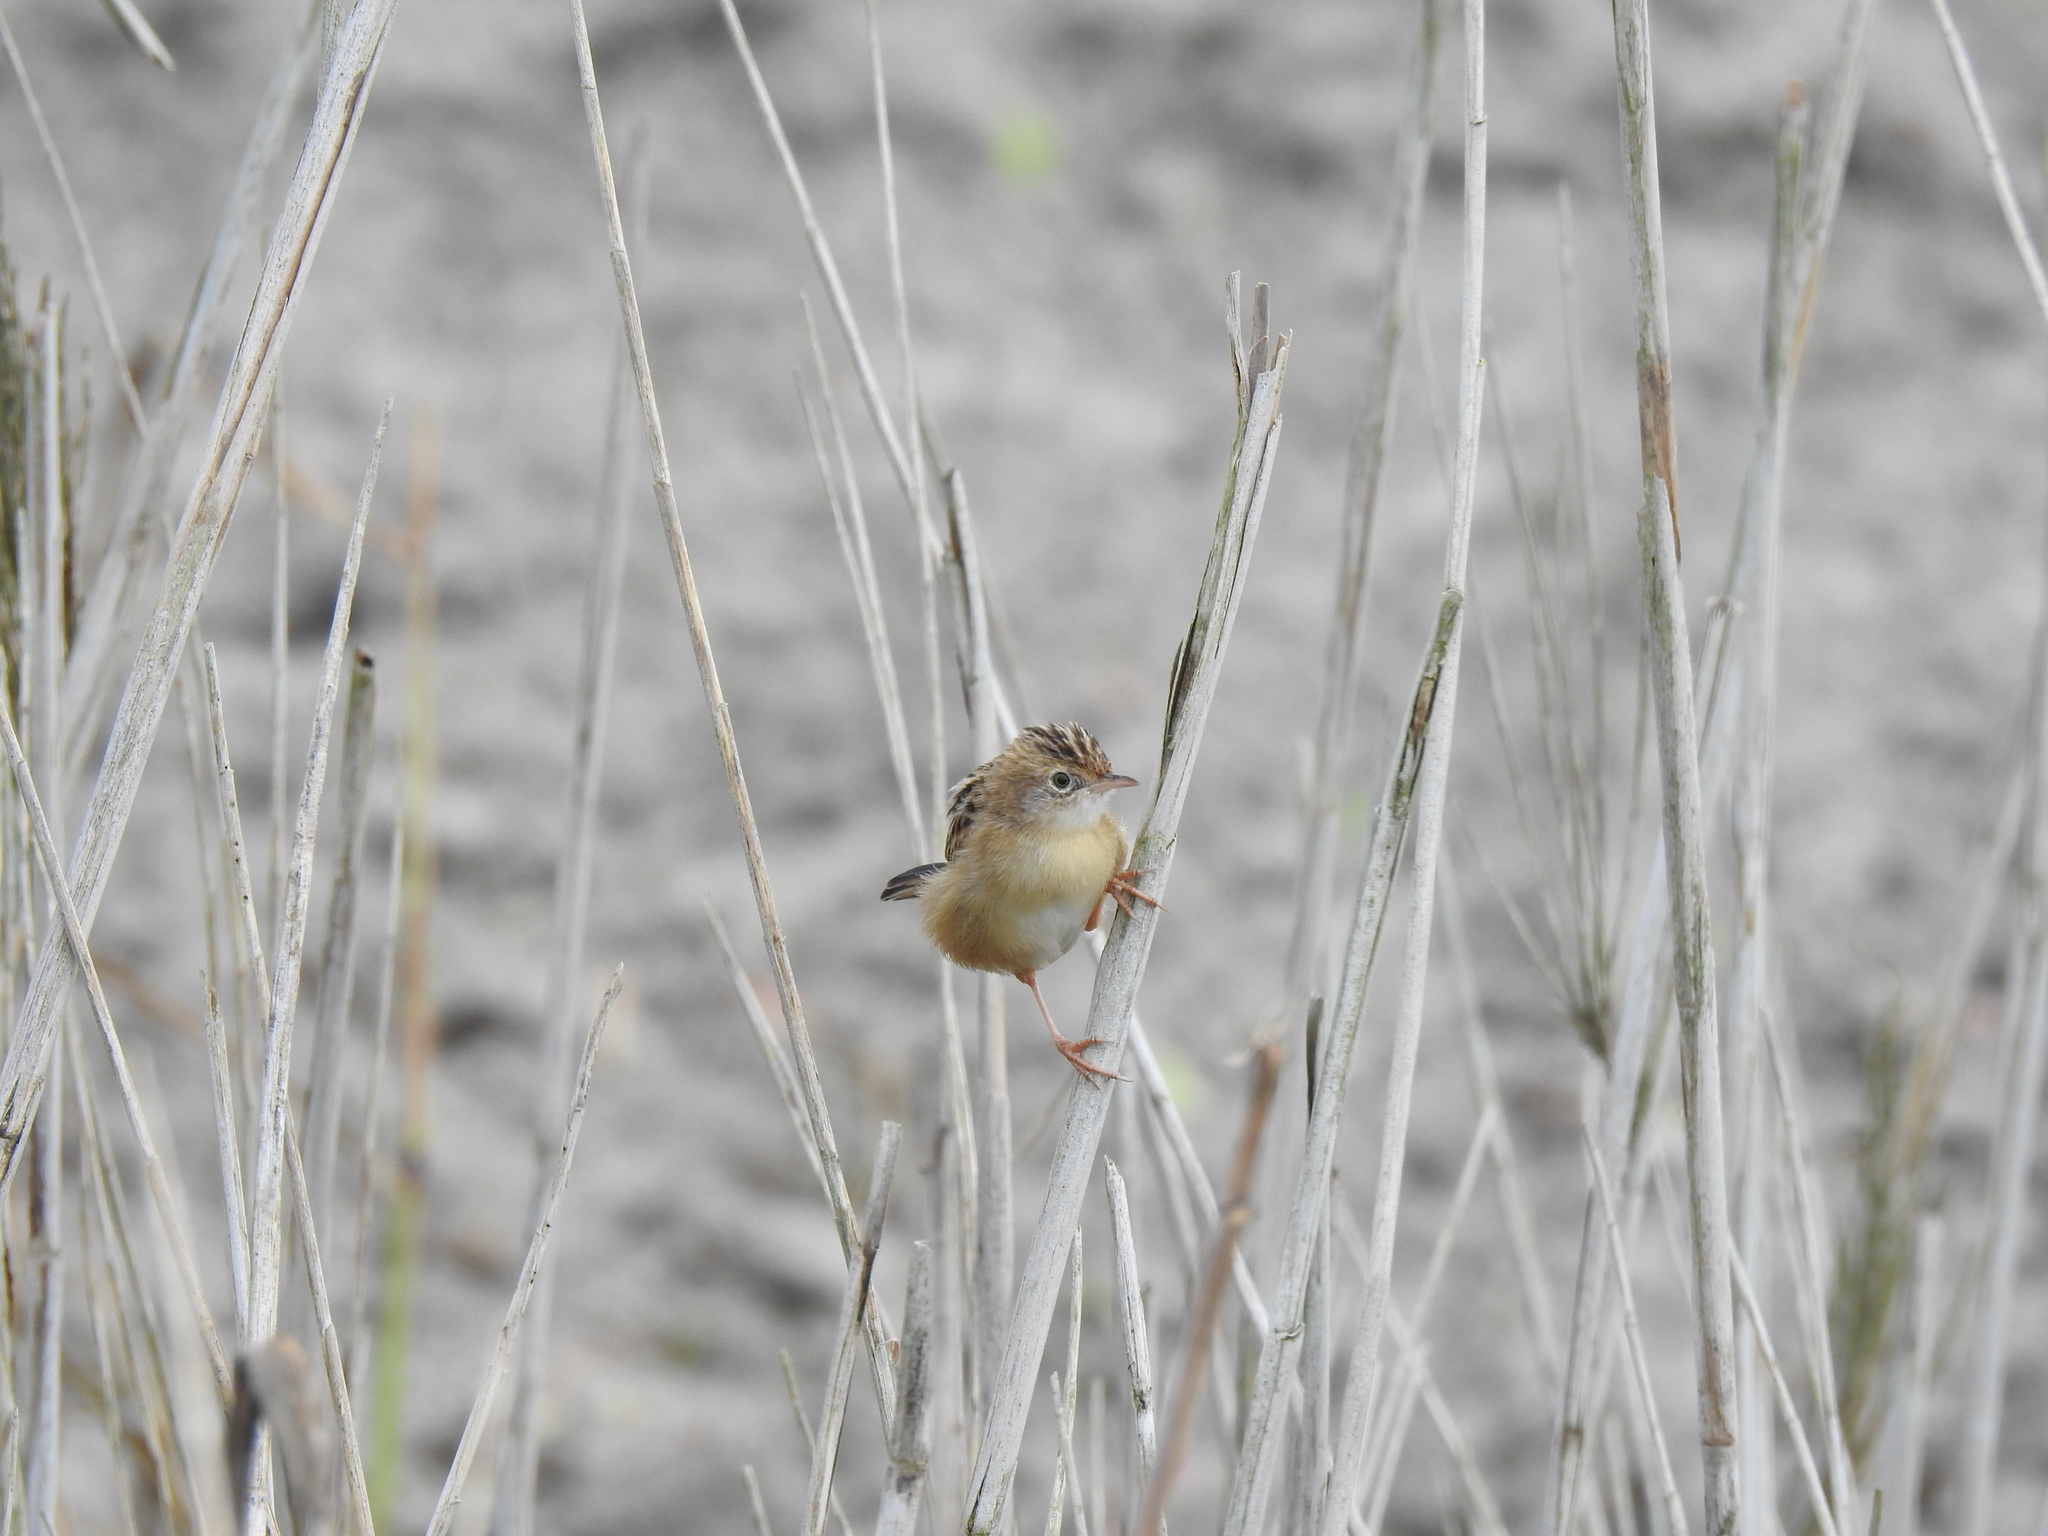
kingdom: Animalia
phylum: Chordata
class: Aves
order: Passeriformes
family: Cisticolidae
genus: Cisticola
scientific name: Cisticola juncidis
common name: Zitting cisticola
